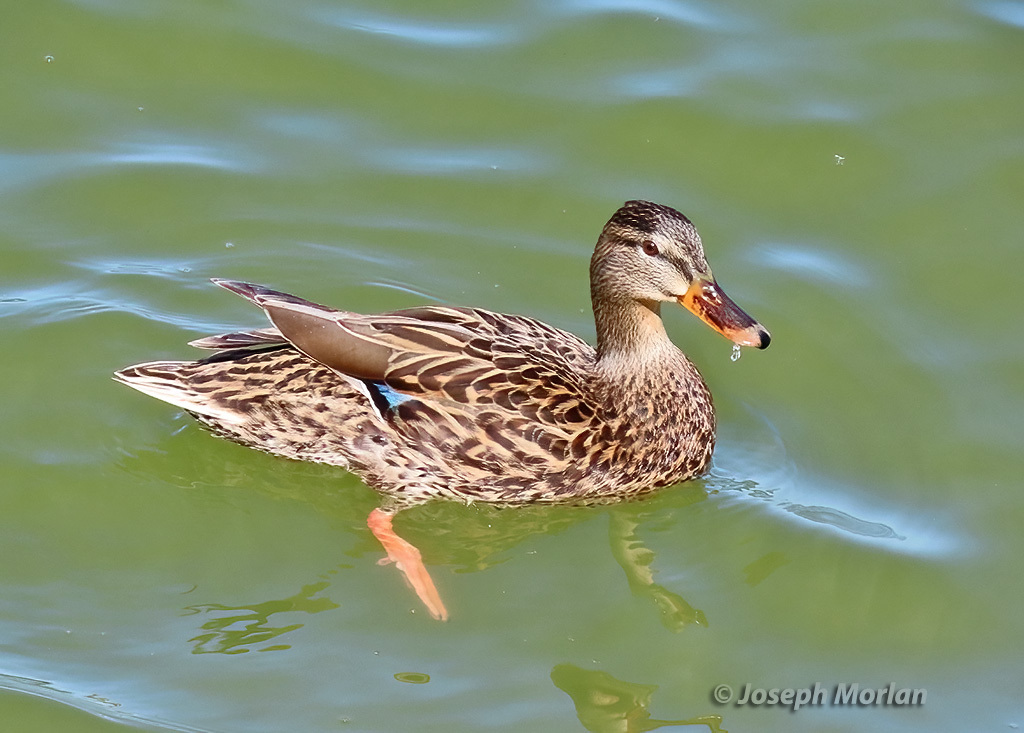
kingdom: Animalia
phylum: Chordata
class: Aves
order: Anseriformes
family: Anatidae
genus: Anas
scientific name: Anas platyrhynchos
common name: Mallard
